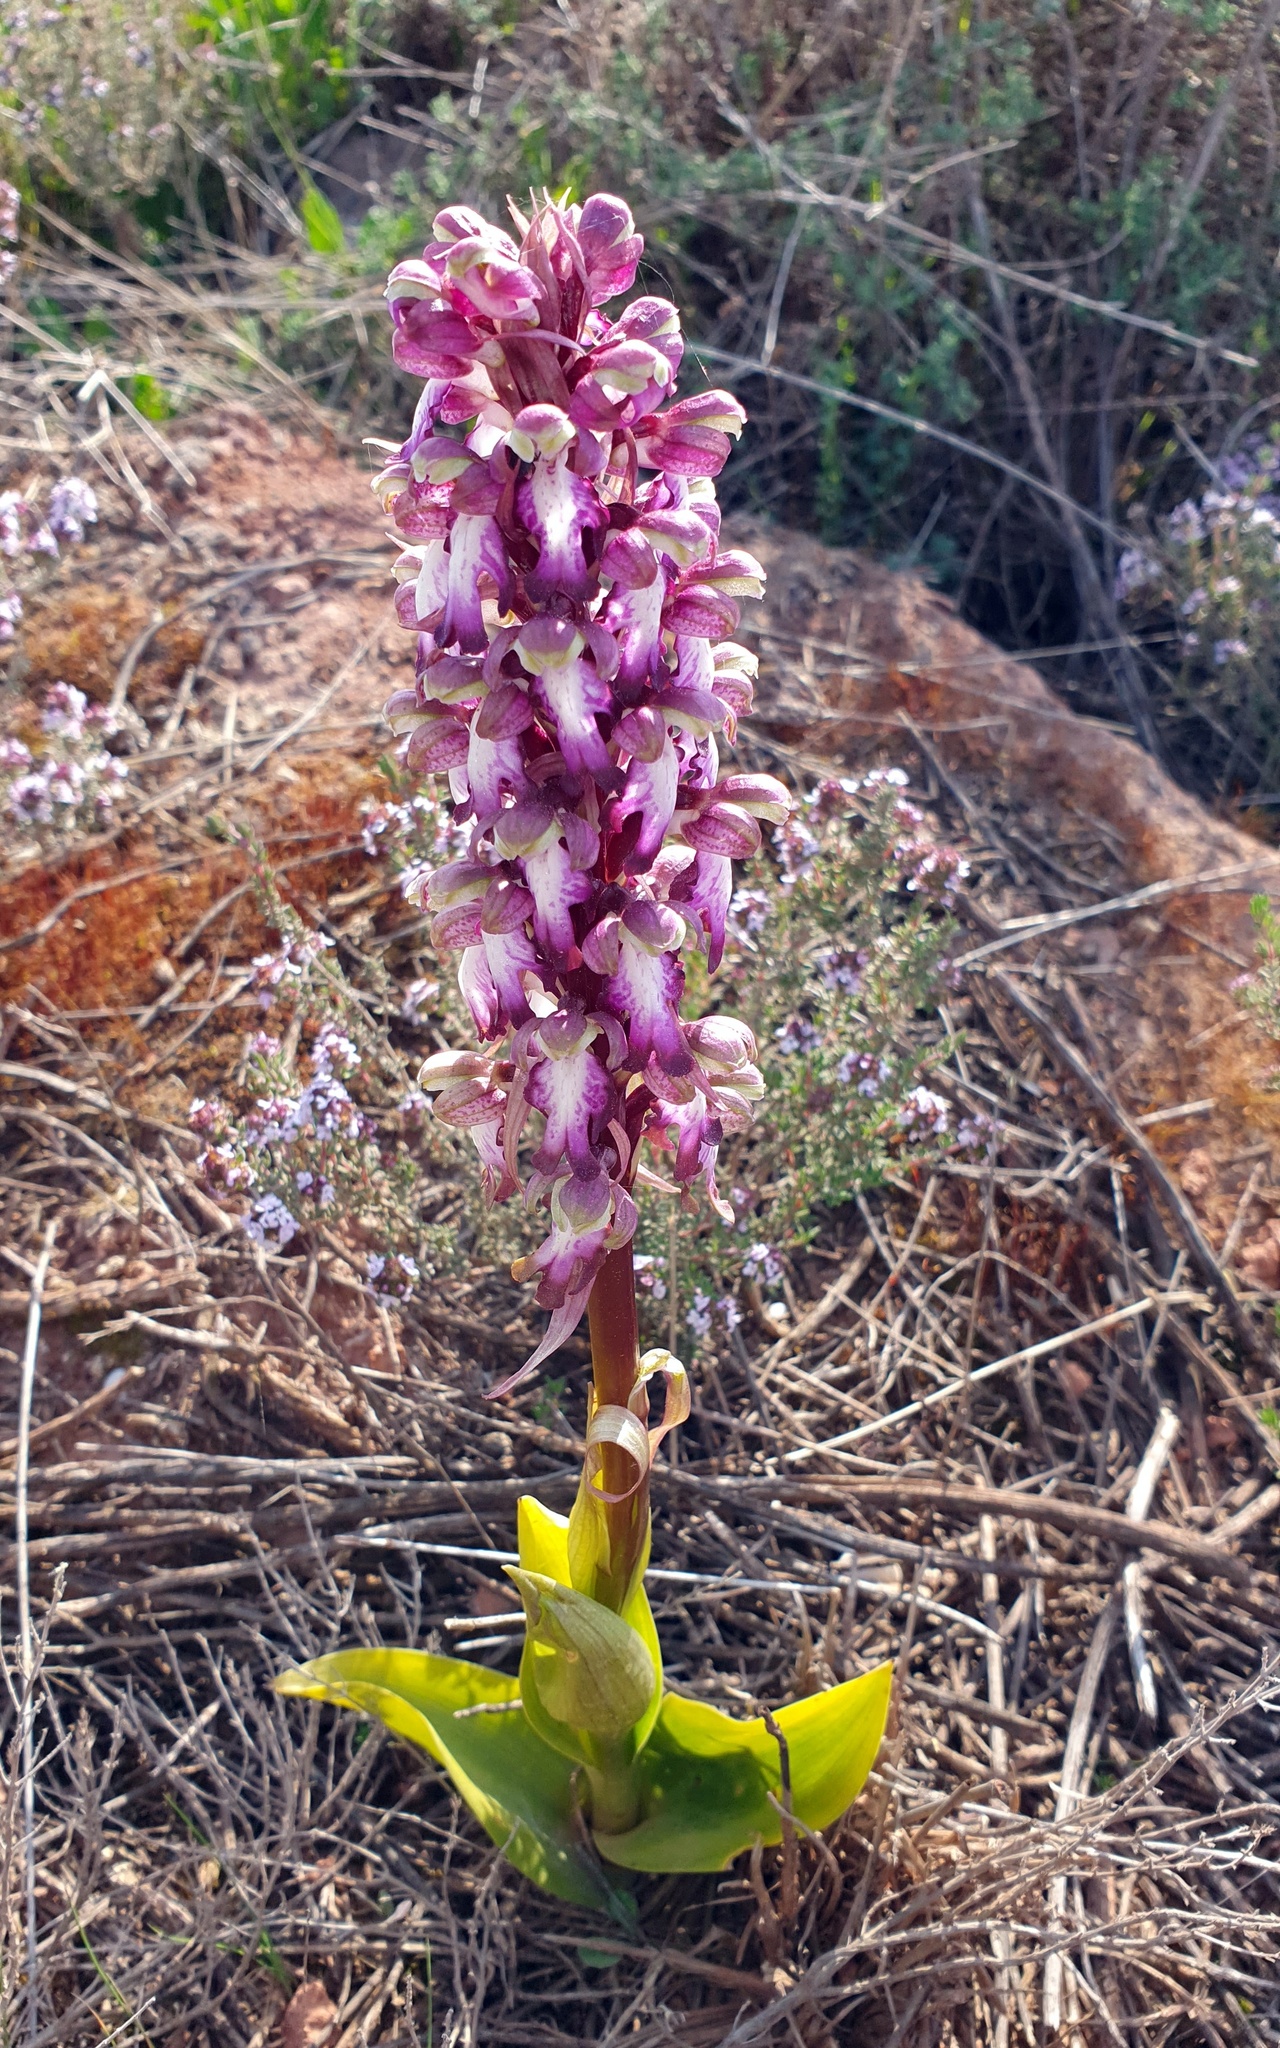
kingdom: Plantae
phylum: Tracheophyta
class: Liliopsida
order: Asparagales
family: Orchidaceae
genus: Himantoglossum
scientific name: Himantoglossum robertianum
